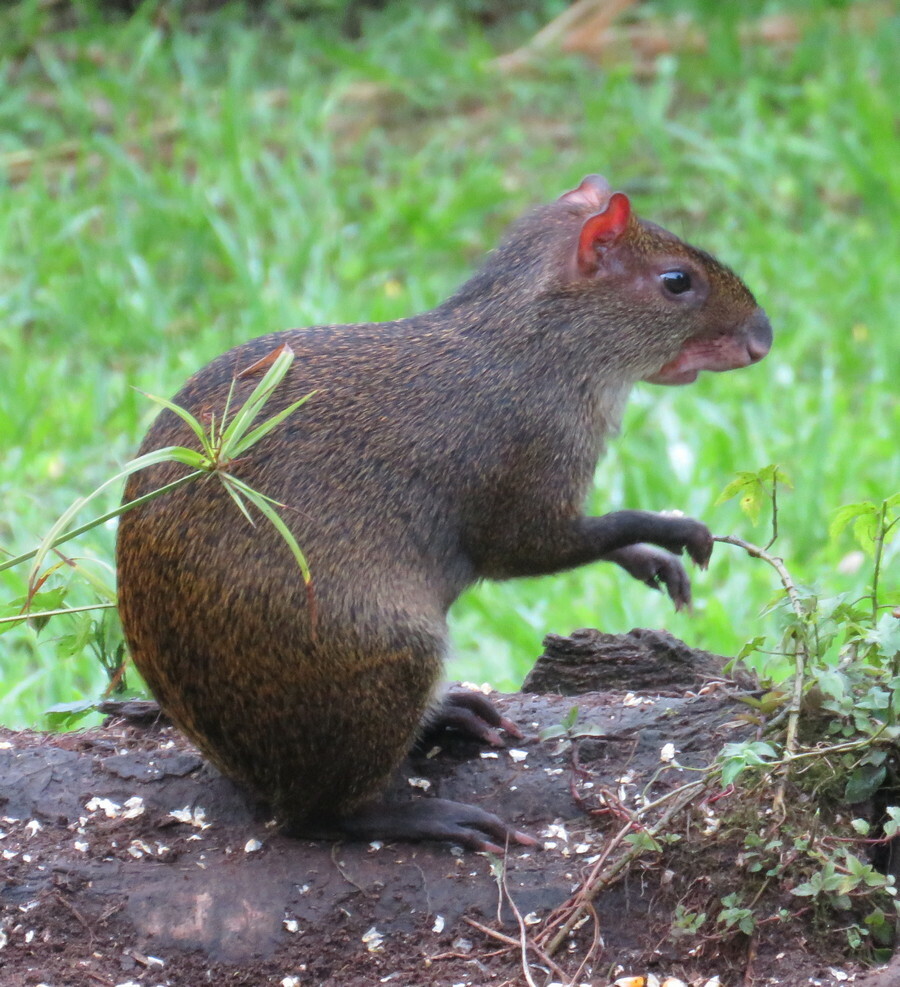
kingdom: Animalia
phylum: Chordata
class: Mammalia
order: Rodentia
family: Dasyproctidae
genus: Dasyprocta
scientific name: Dasyprocta punctata
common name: Central american agouti
